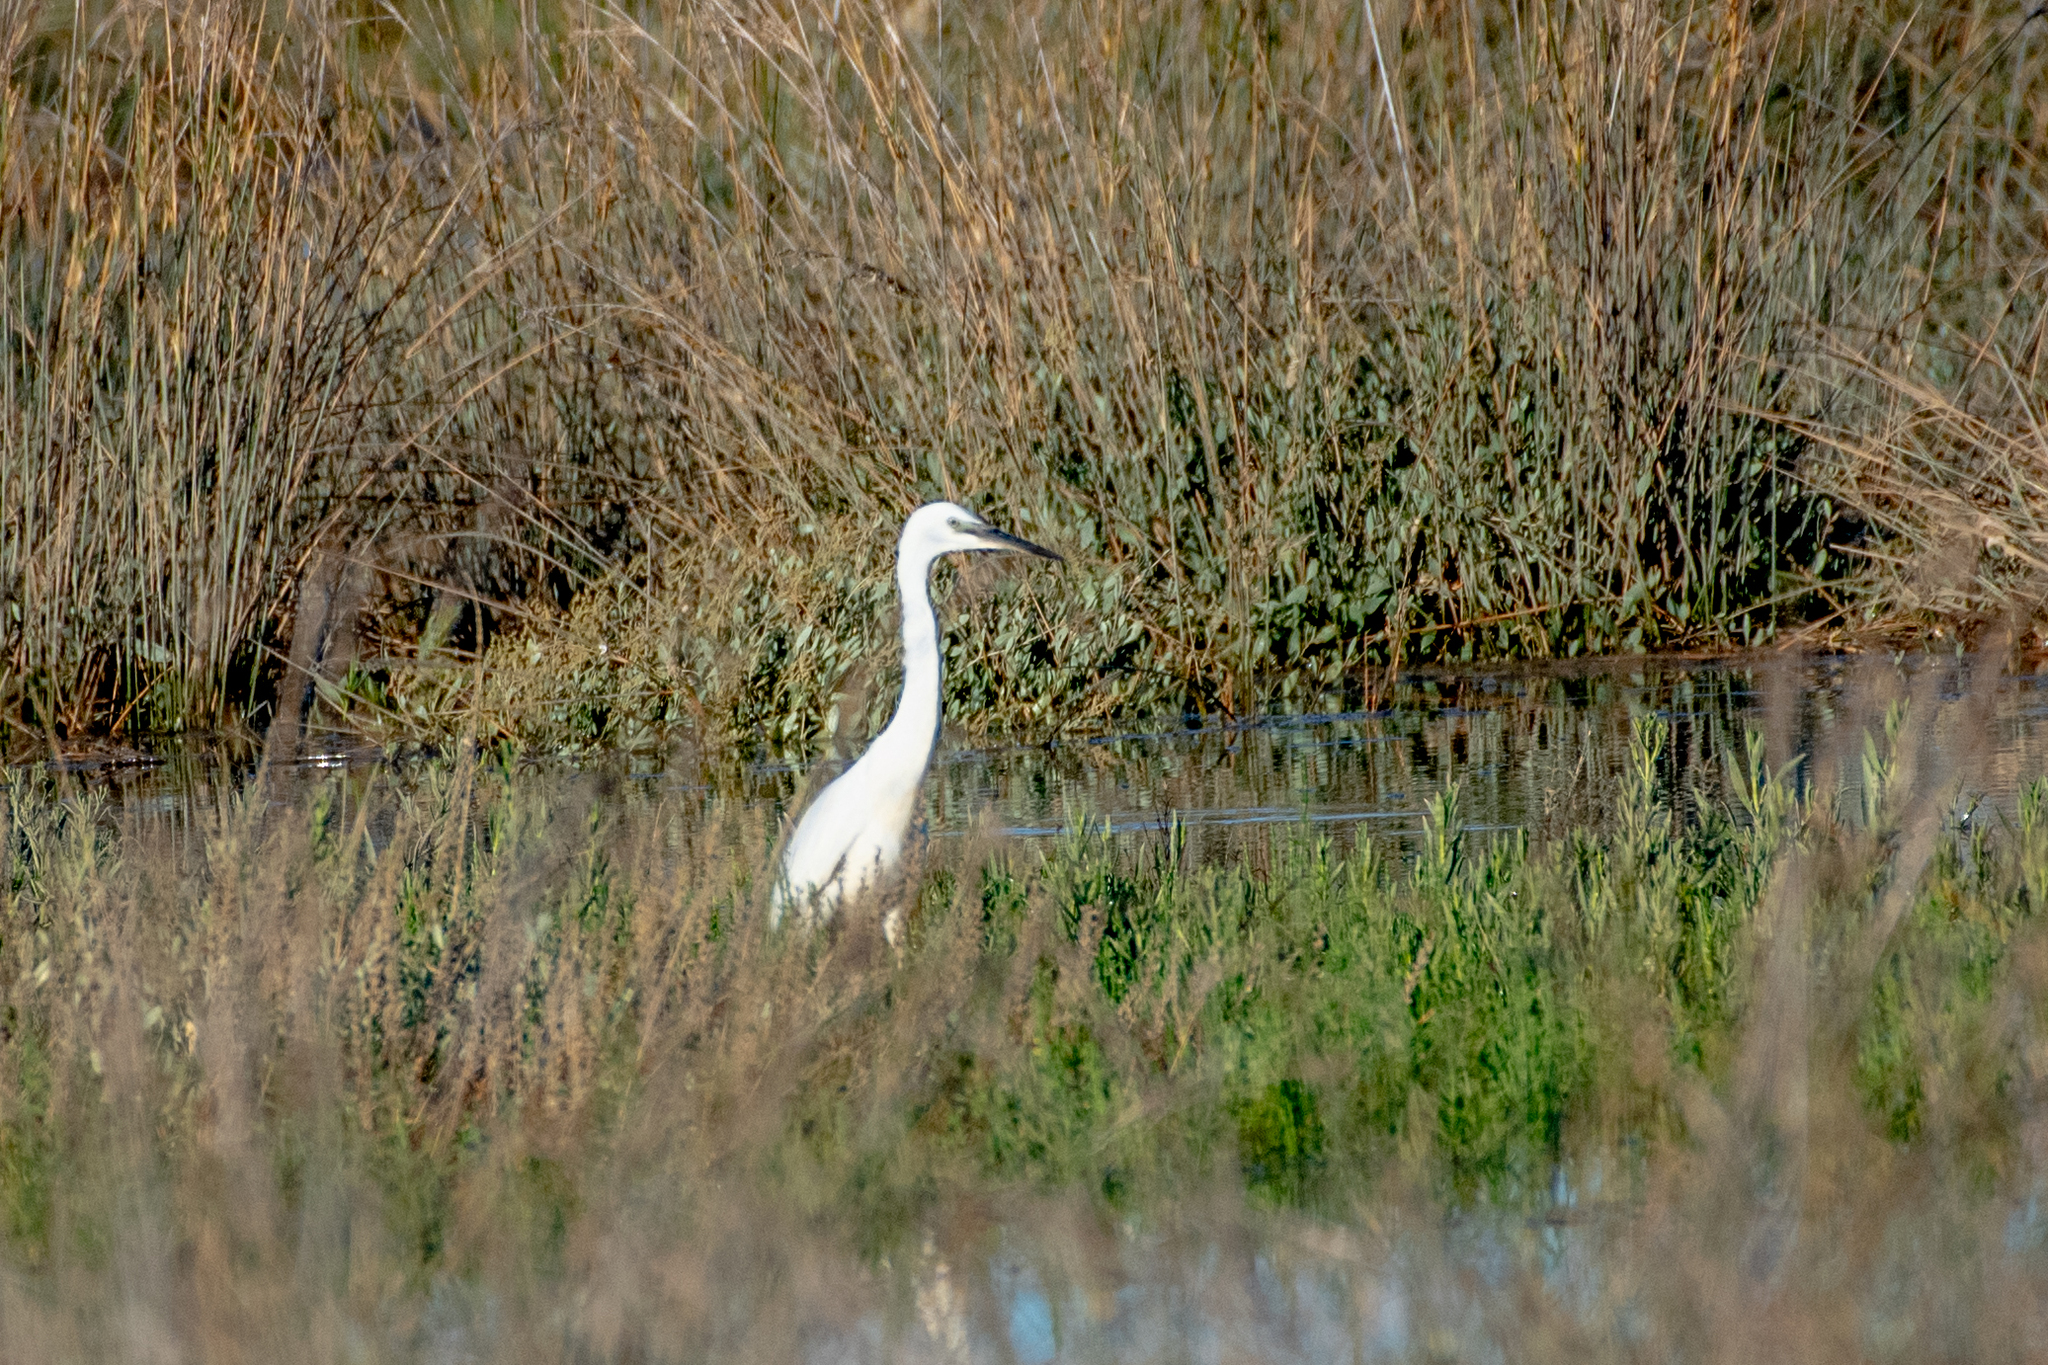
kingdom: Animalia
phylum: Chordata
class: Aves
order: Pelecaniformes
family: Ardeidae
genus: Egretta
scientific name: Egretta garzetta
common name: Little egret
